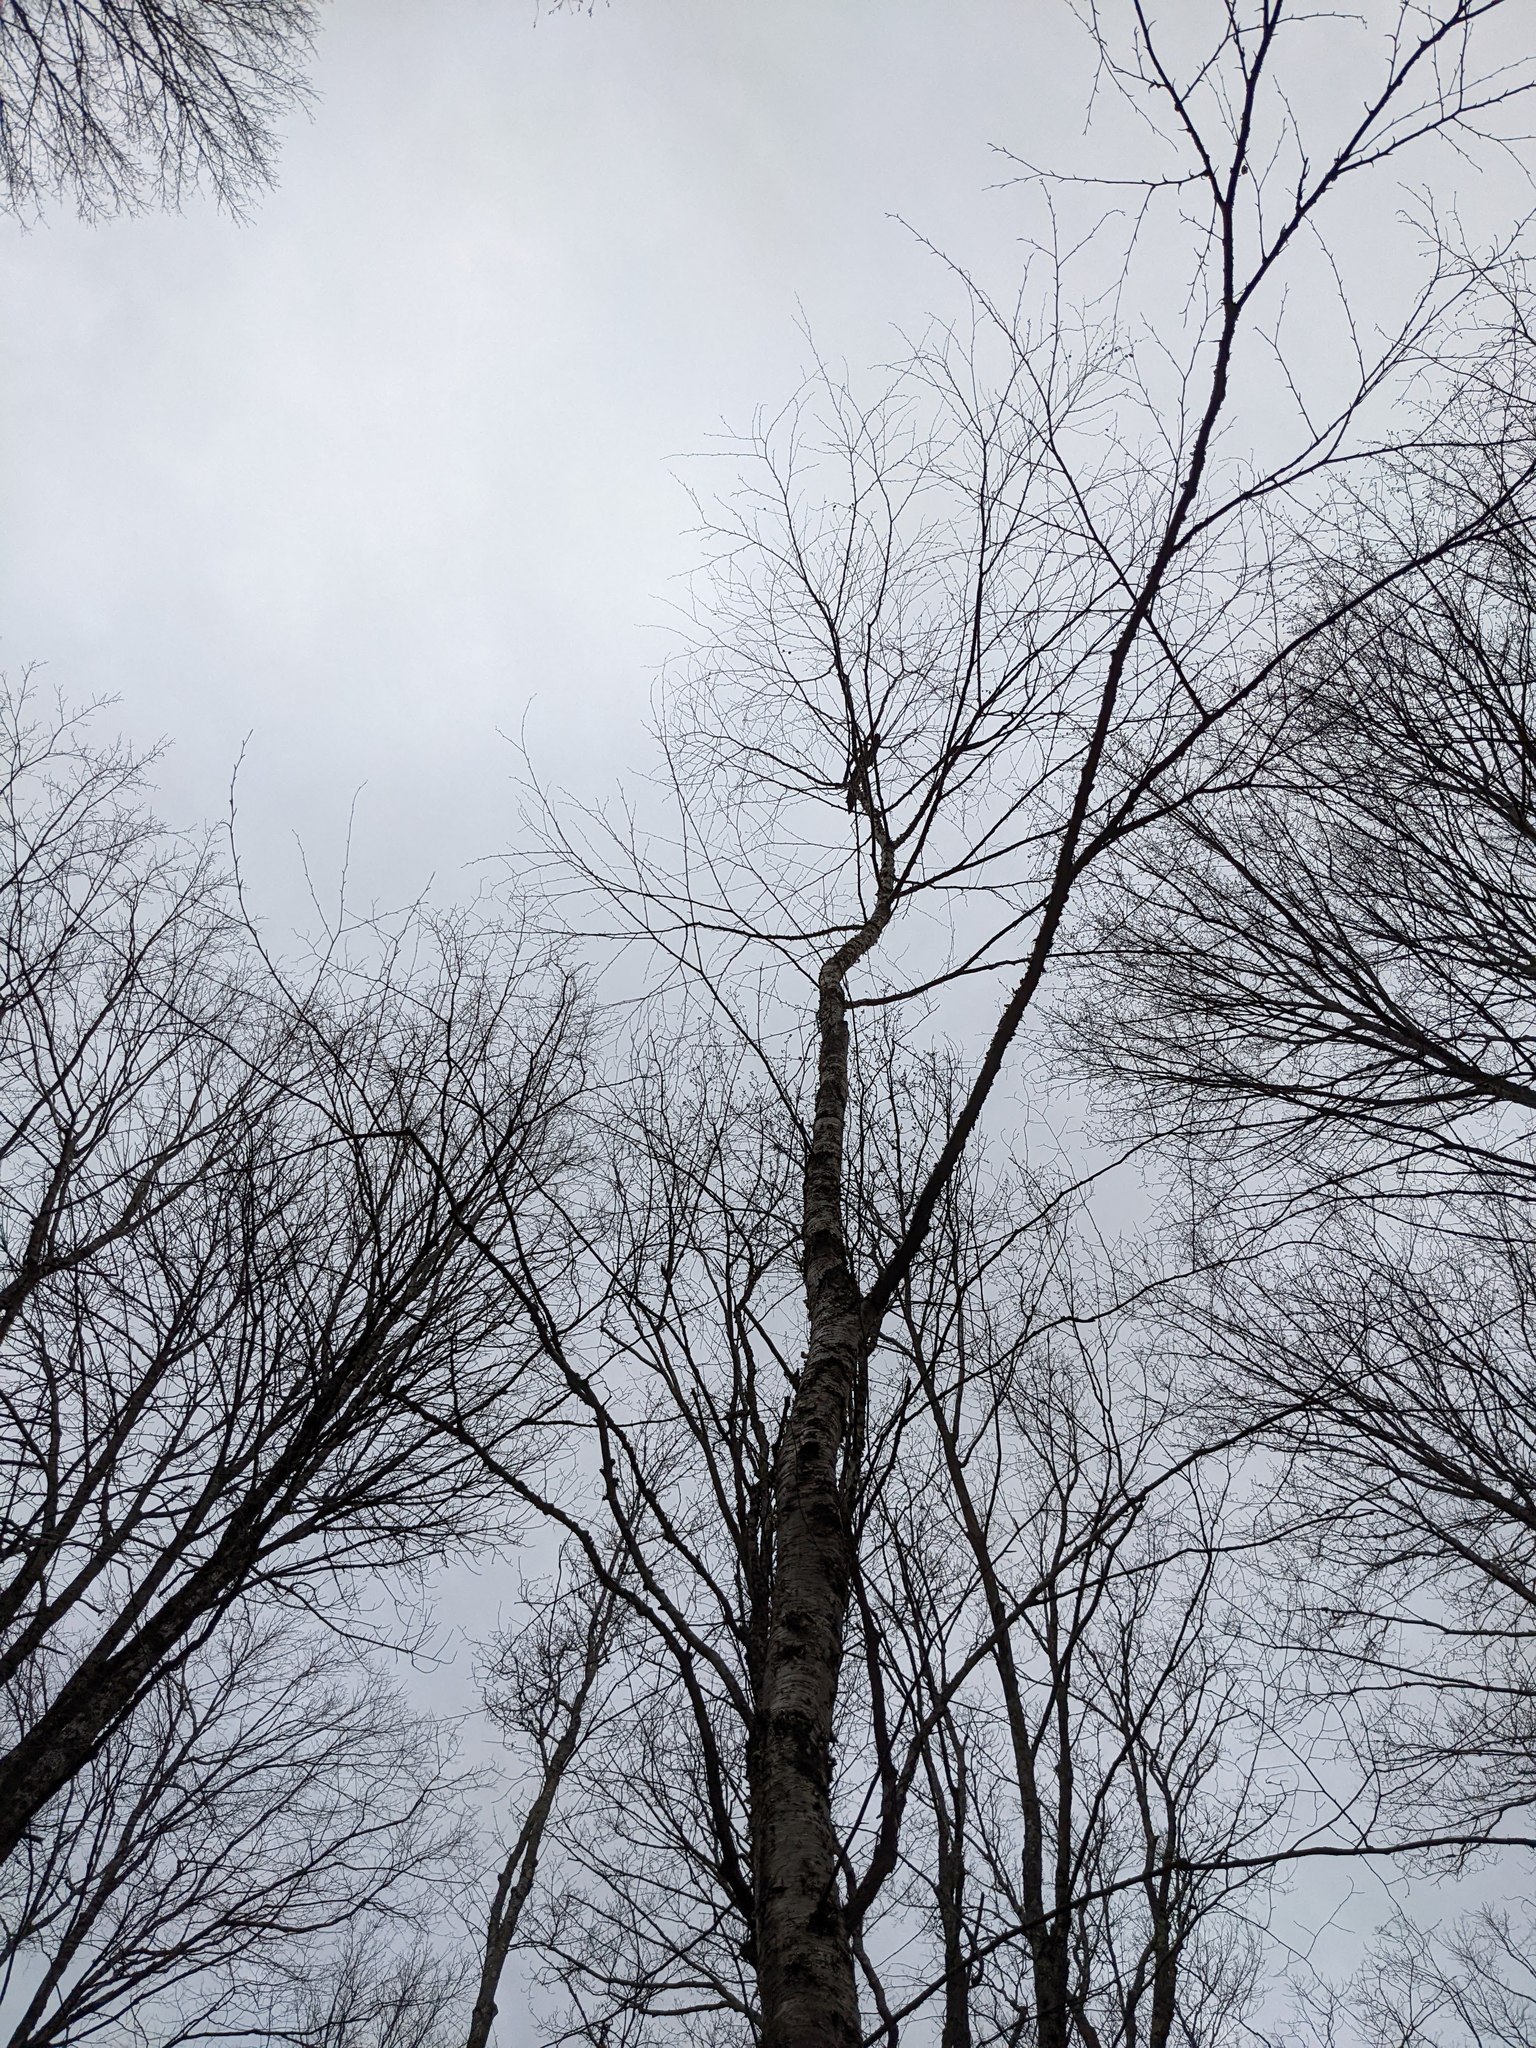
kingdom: Plantae
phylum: Tracheophyta
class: Magnoliopsida
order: Fagales
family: Betulaceae
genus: Betula
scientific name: Betula alleghaniensis
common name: Yellow birch
